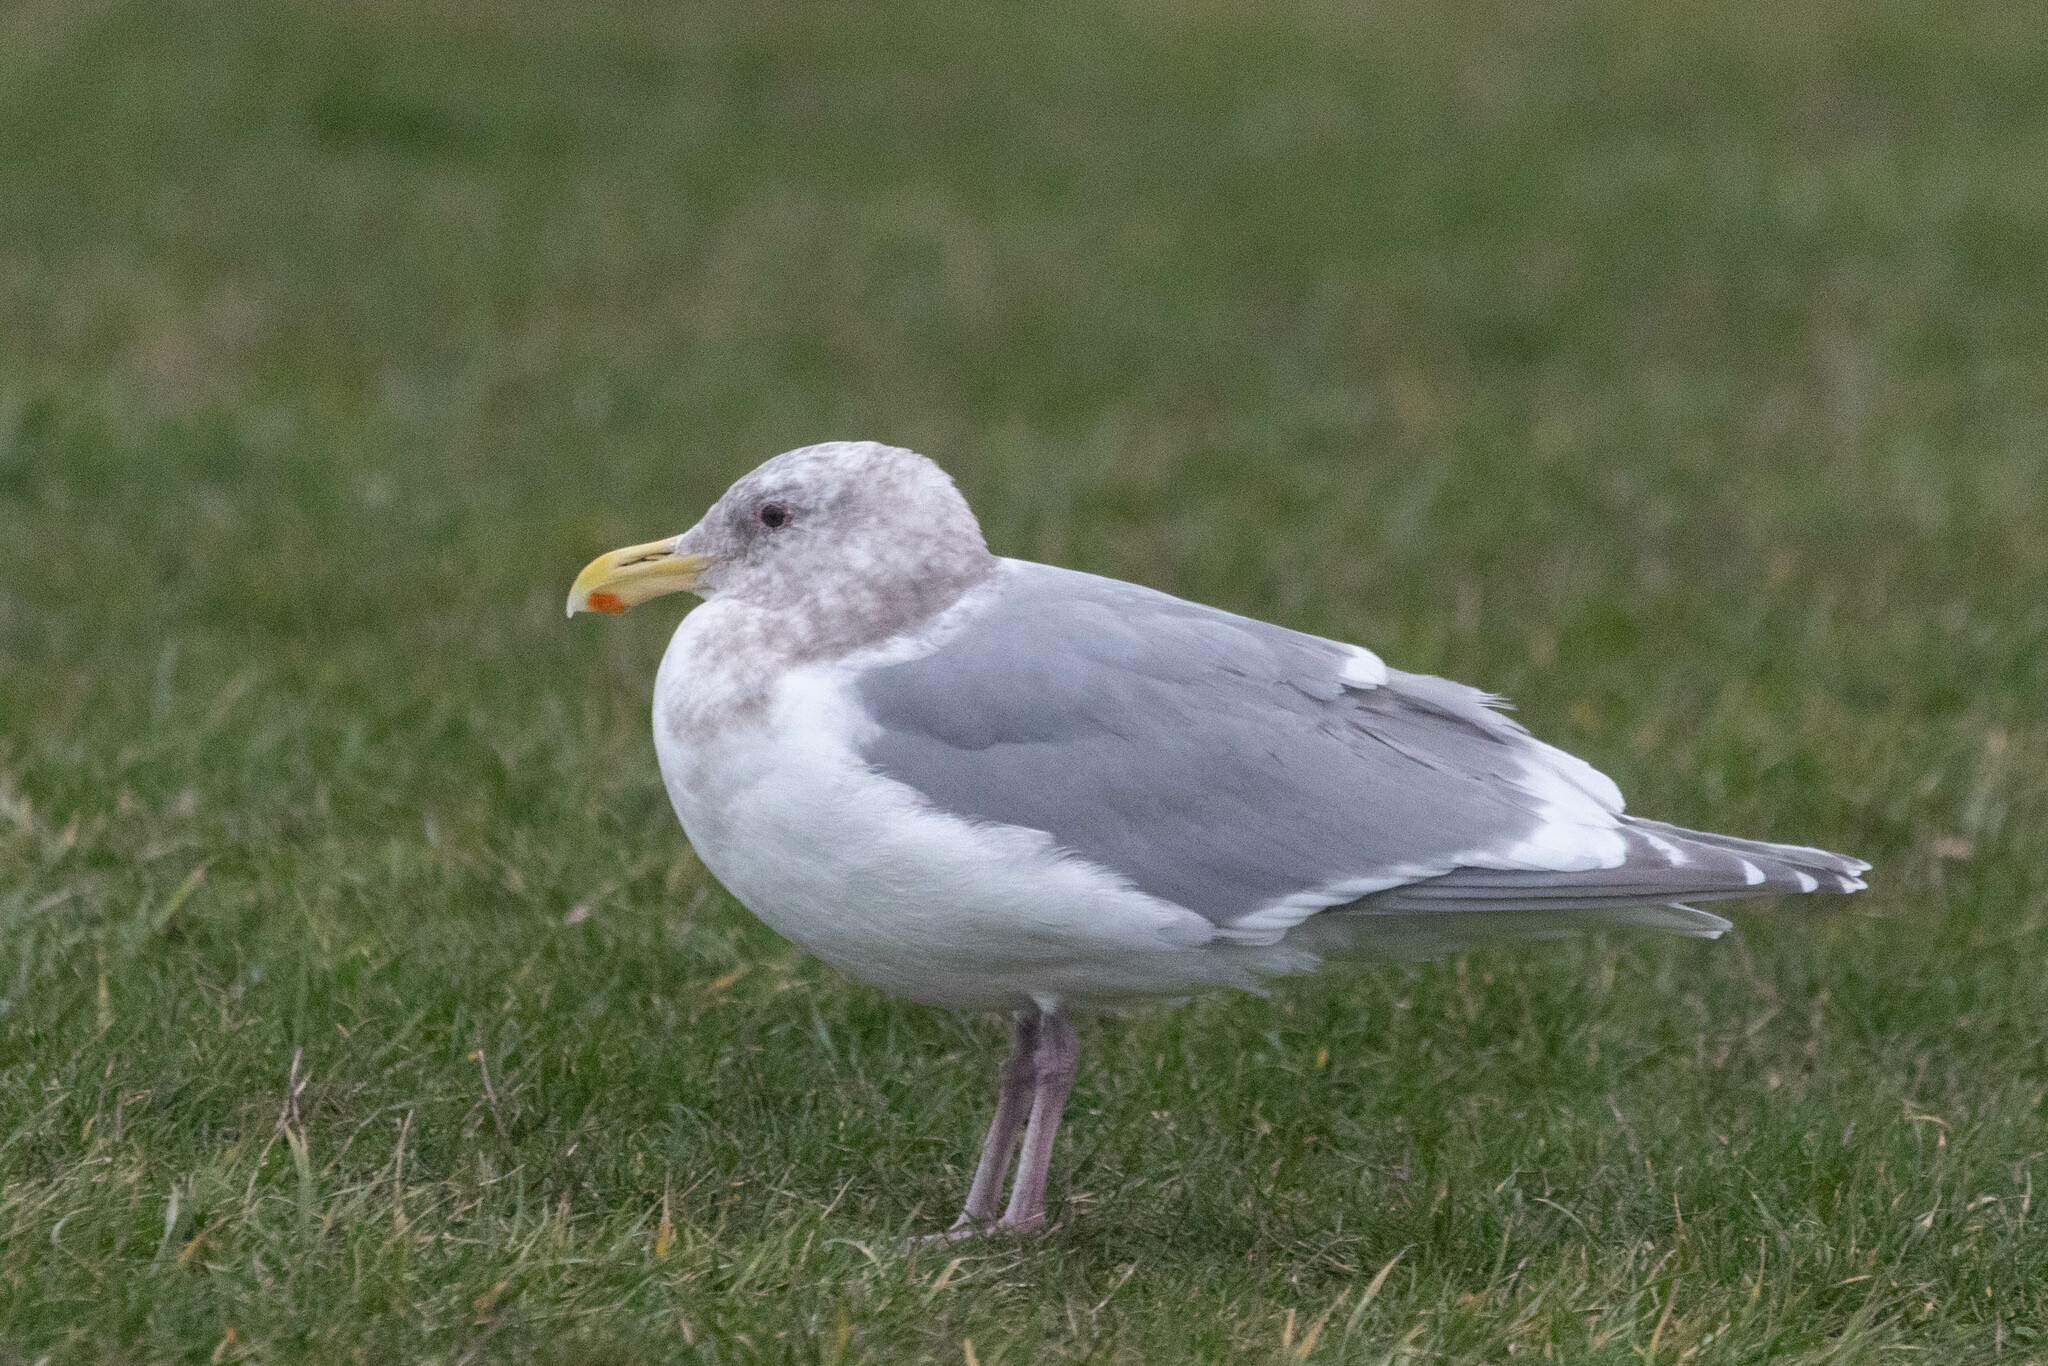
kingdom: Animalia
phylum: Chordata
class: Aves
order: Charadriiformes
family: Laridae
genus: Larus
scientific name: Larus
